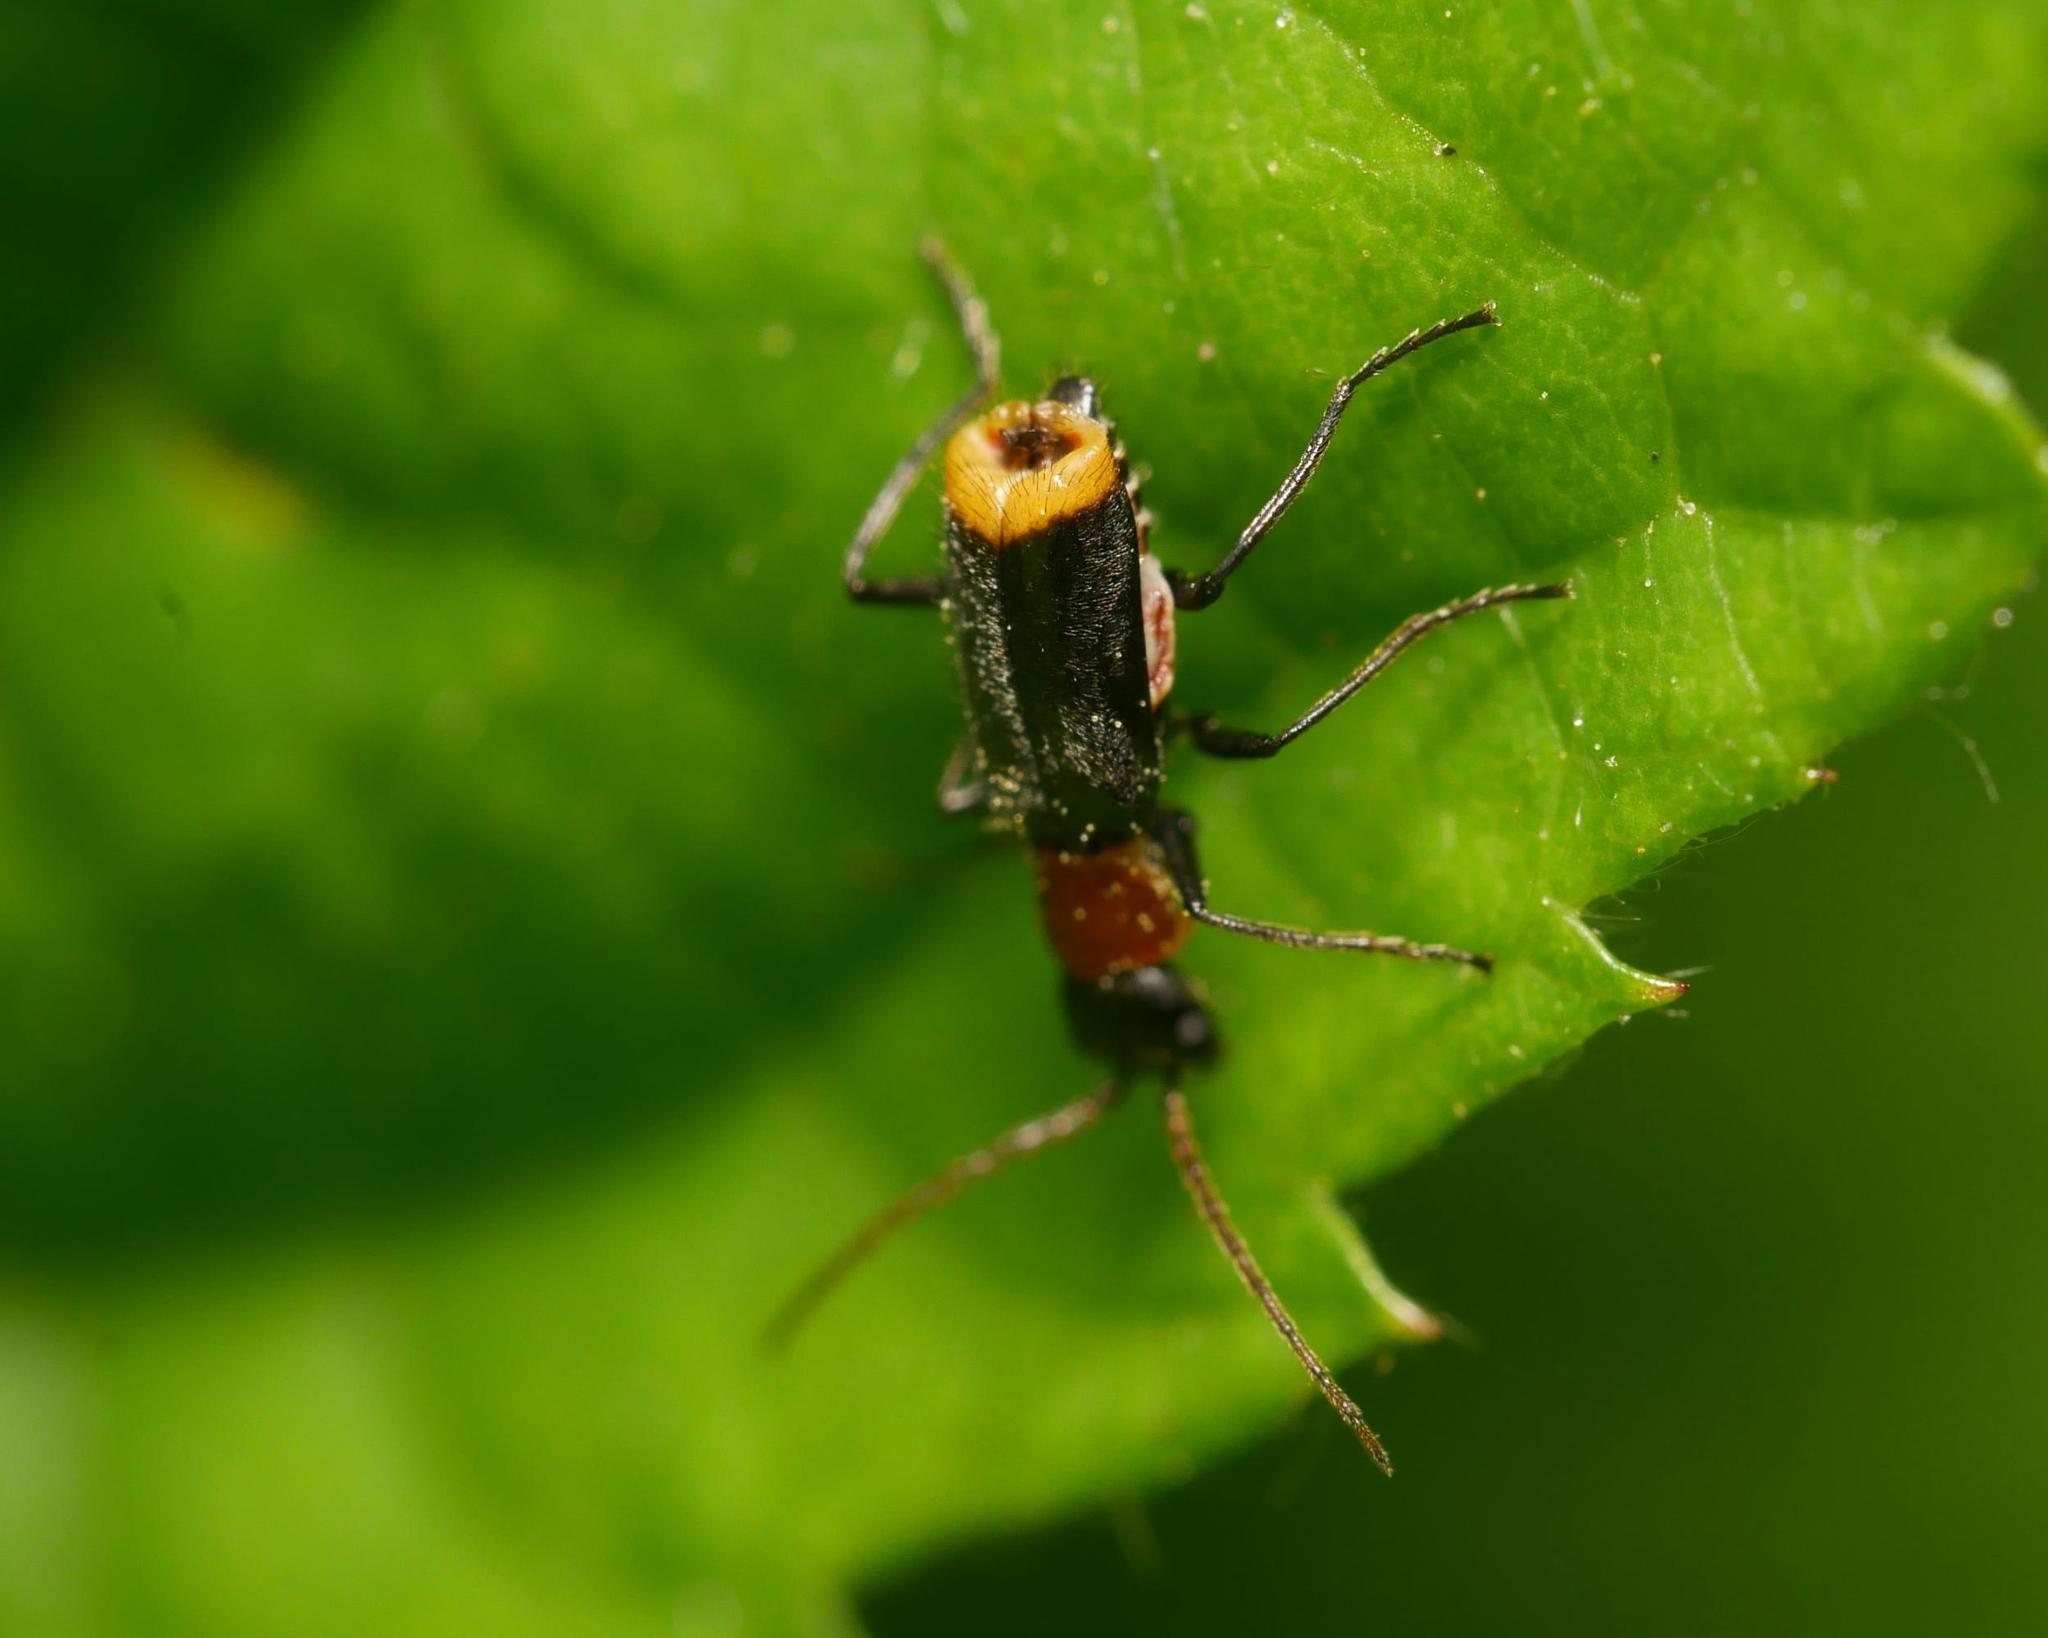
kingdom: Animalia
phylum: Arthropoda
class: Insecta
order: Coleoptera
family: Melyridae
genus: Axinotarsus
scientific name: Axinotarsus ruficollis
